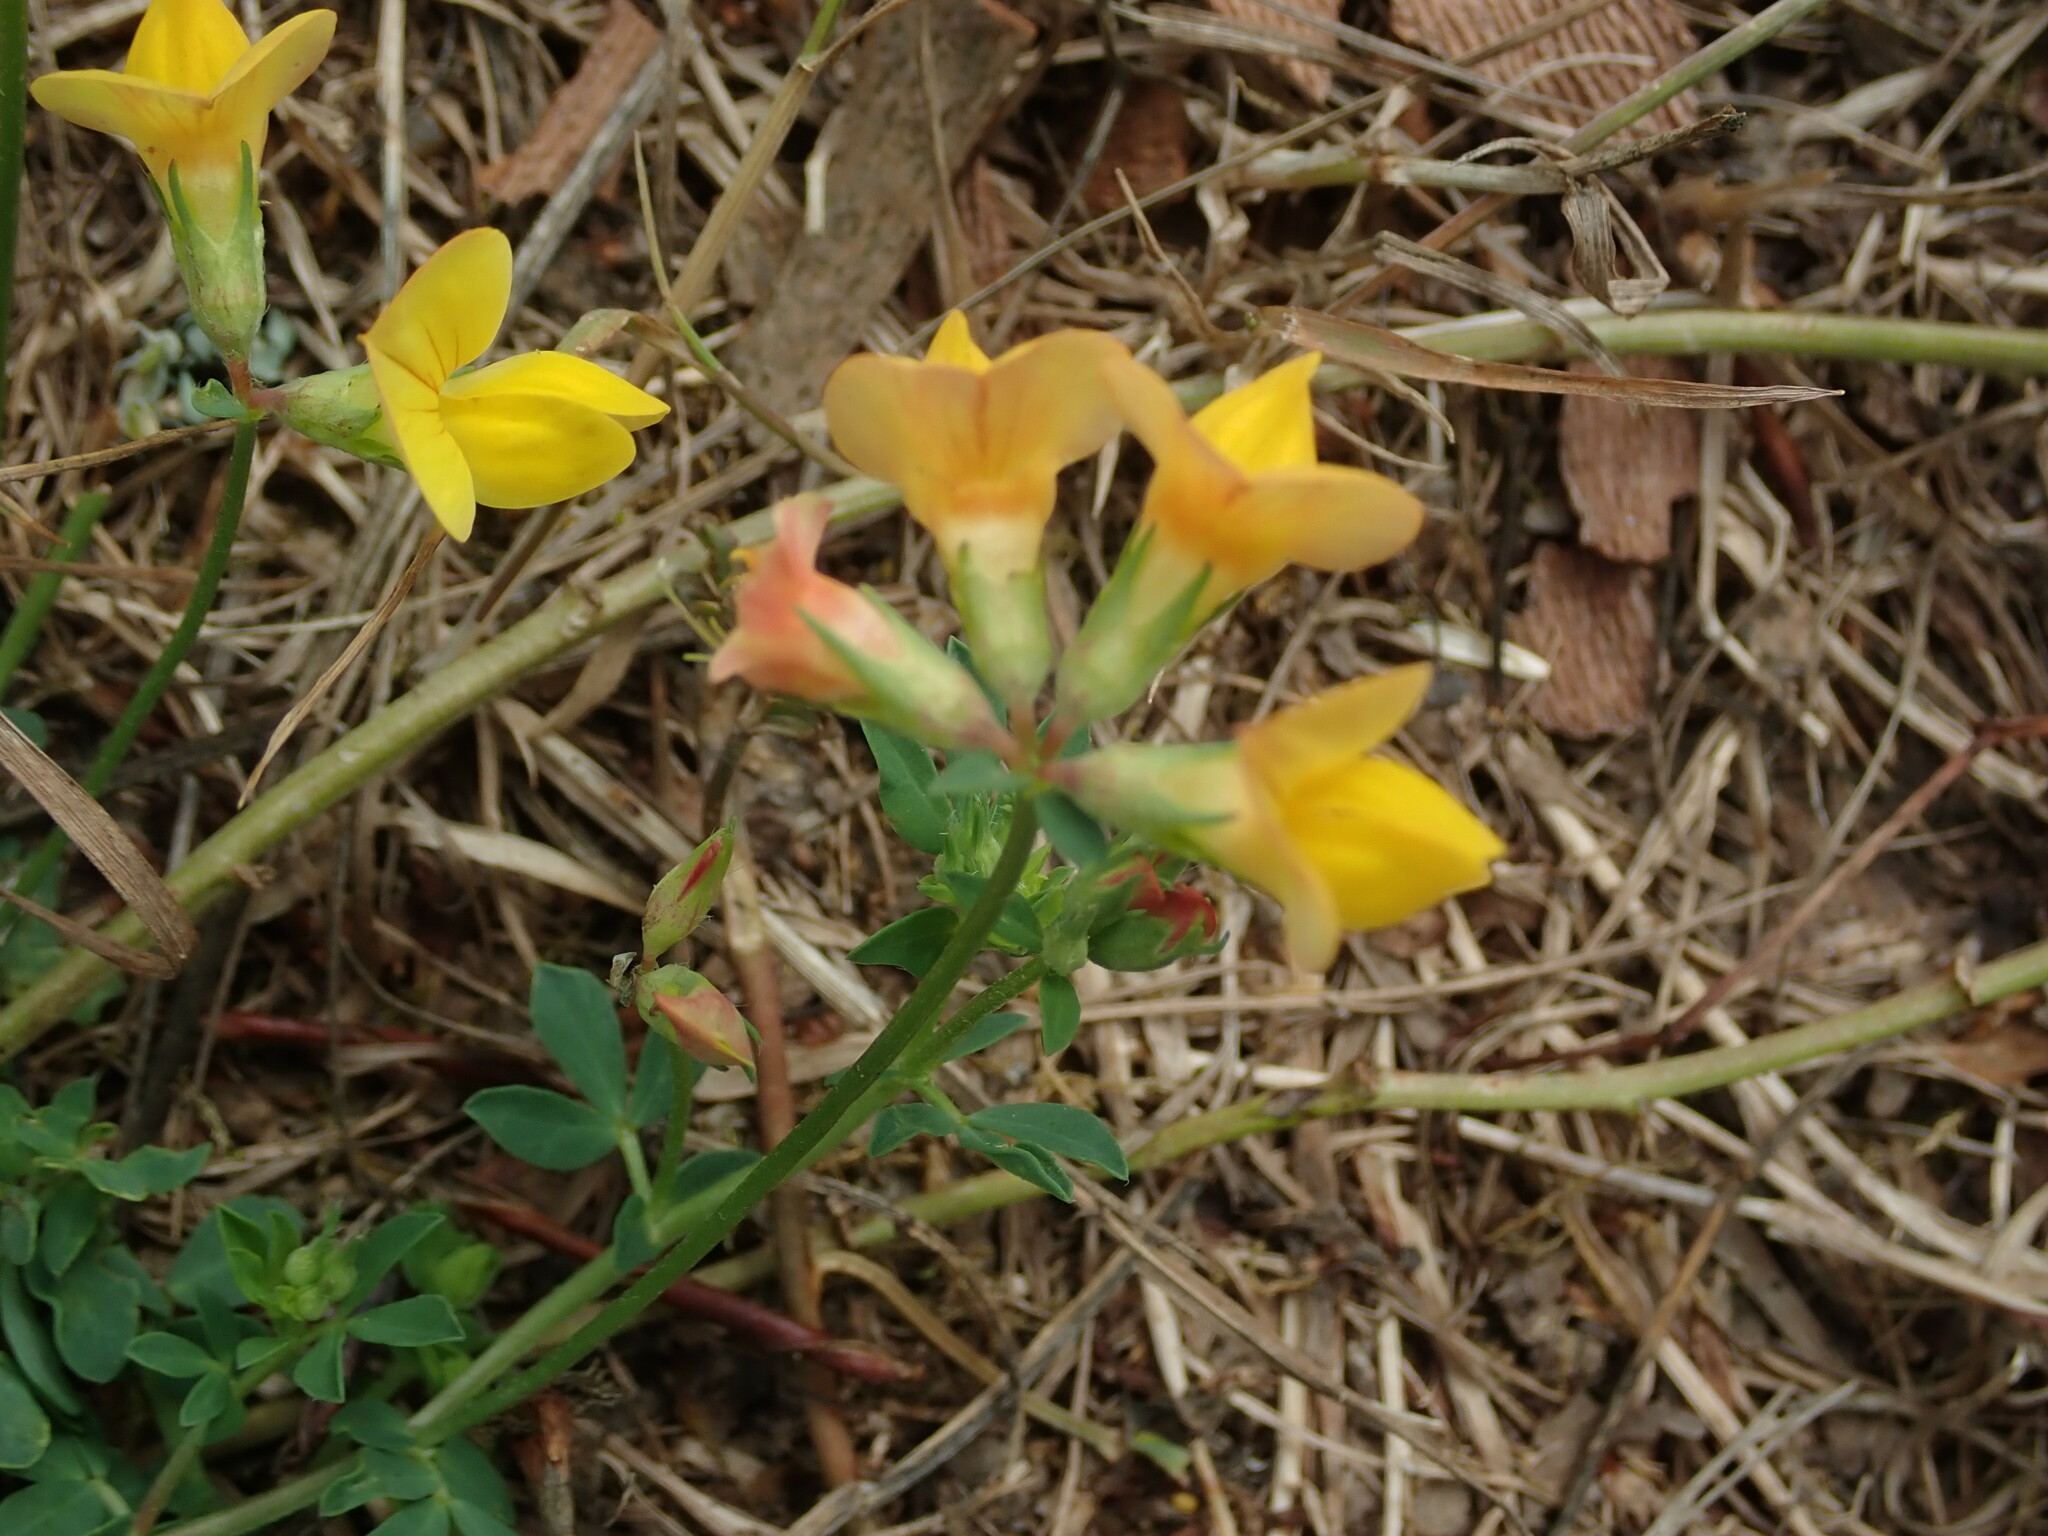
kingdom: Plantae
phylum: Tracheophyta
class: Magnoliopsida
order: Fabales
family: Fabaceae
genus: Lotus
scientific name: Lotus corniculatus
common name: Common bird's-foot-trefoil
